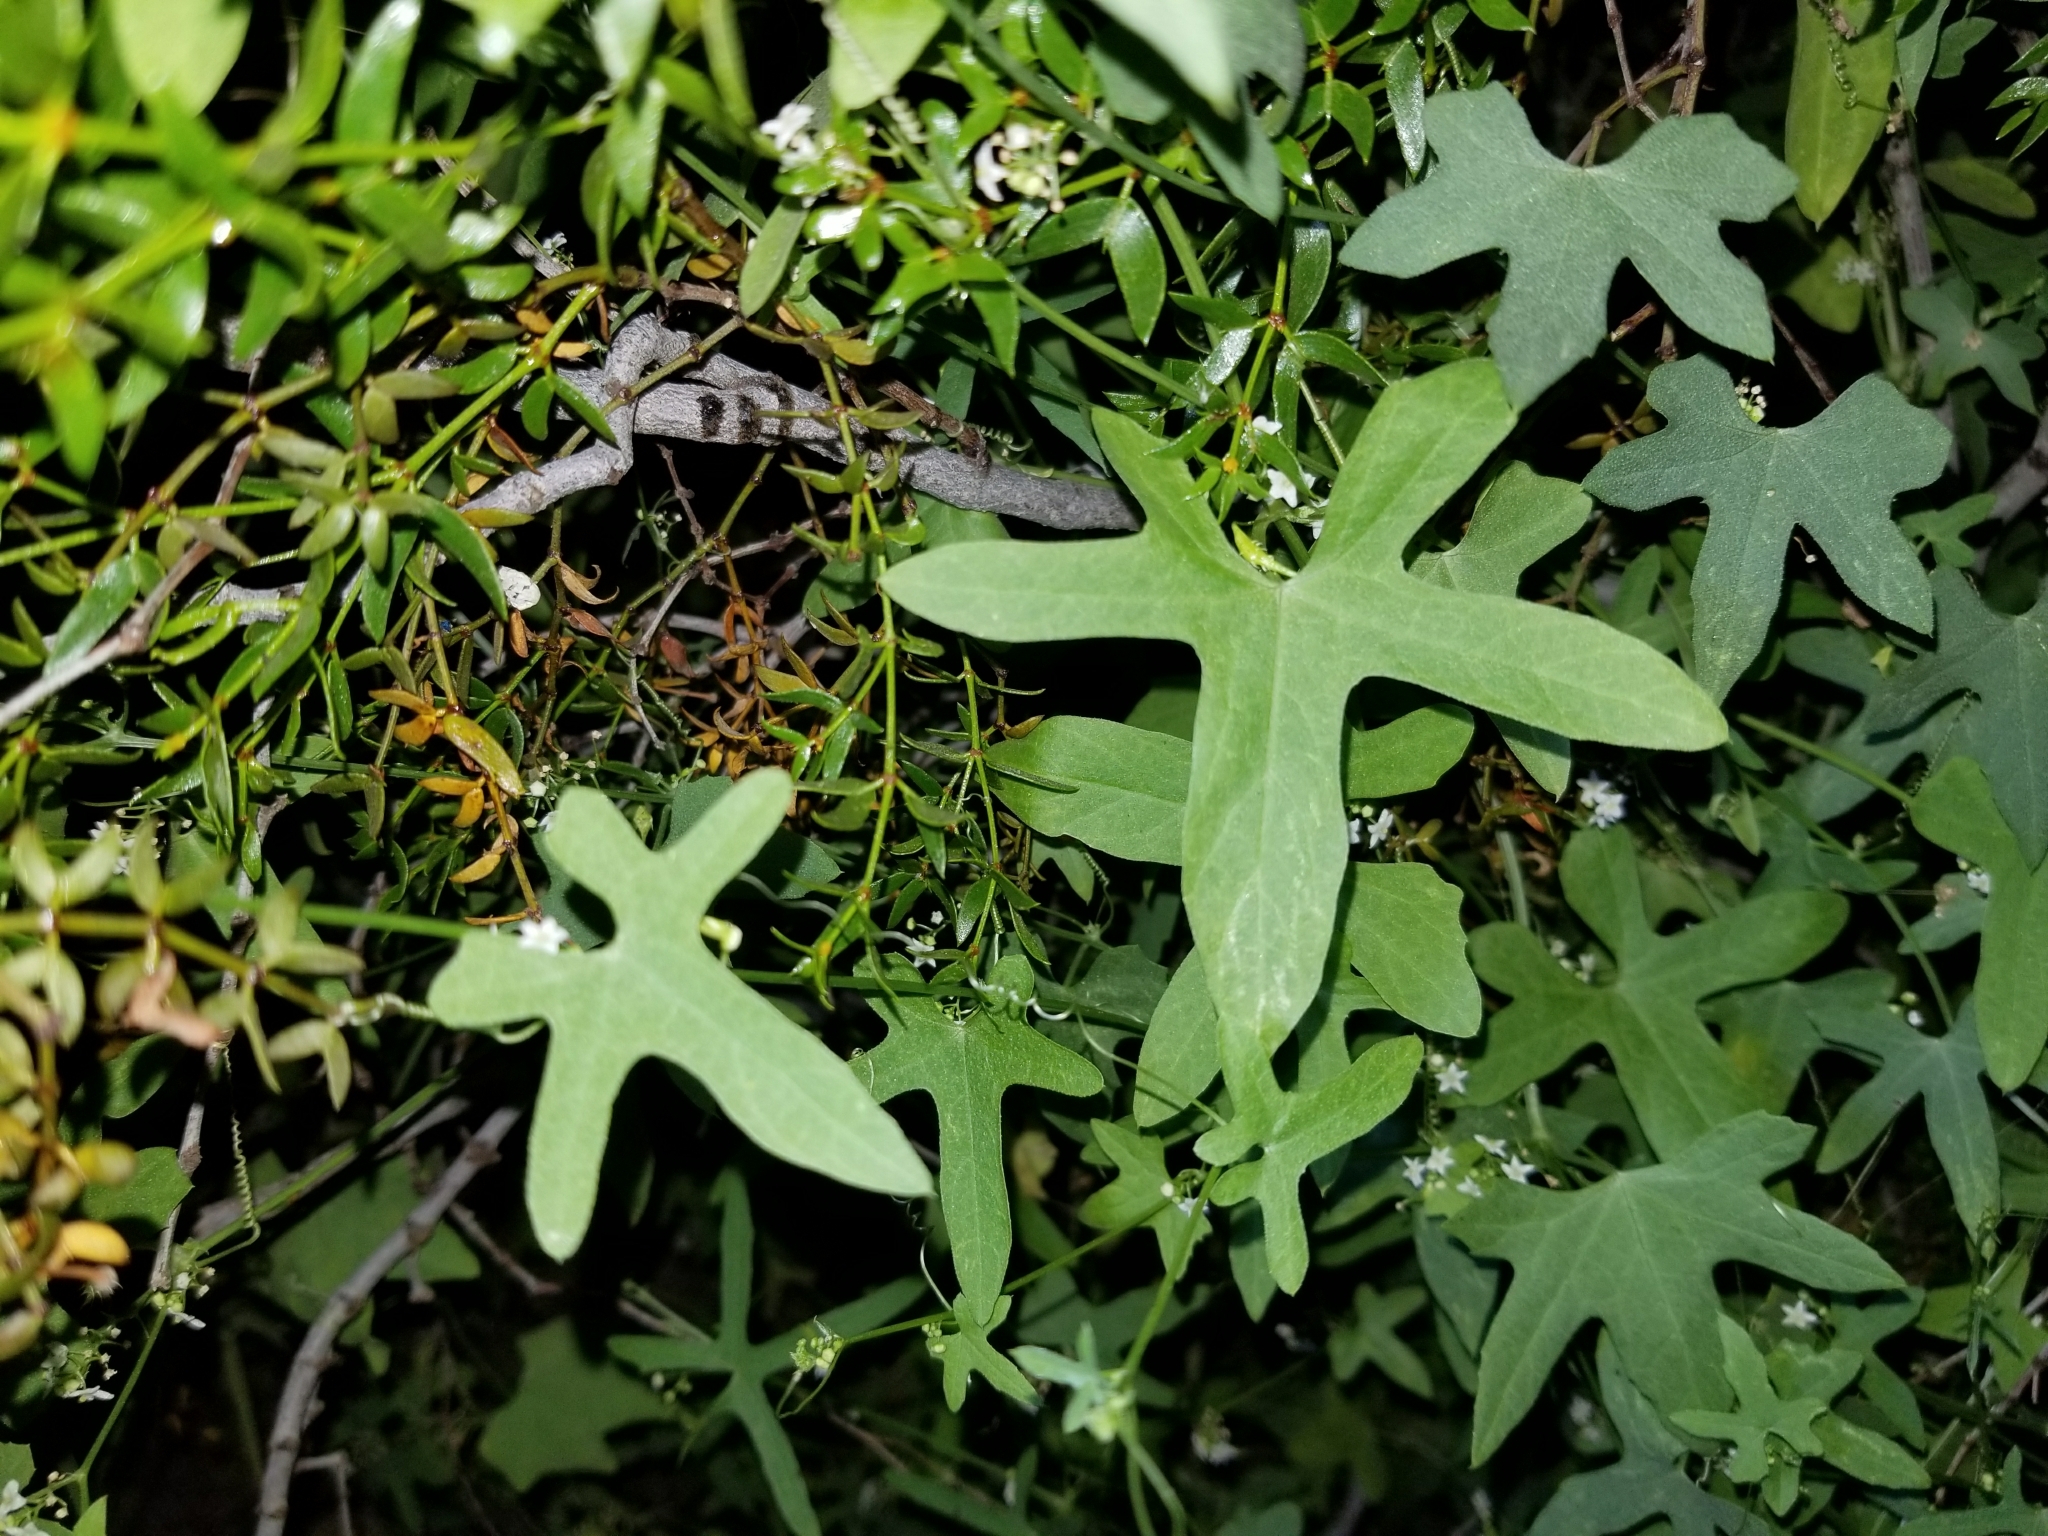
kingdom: Plantae
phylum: Tracheophyta
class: Magnoliopsida
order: Cucurbitales
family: Cucurbitaceae
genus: Echinopepon
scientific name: Echinopepon bigelovii
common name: Desert starvine
